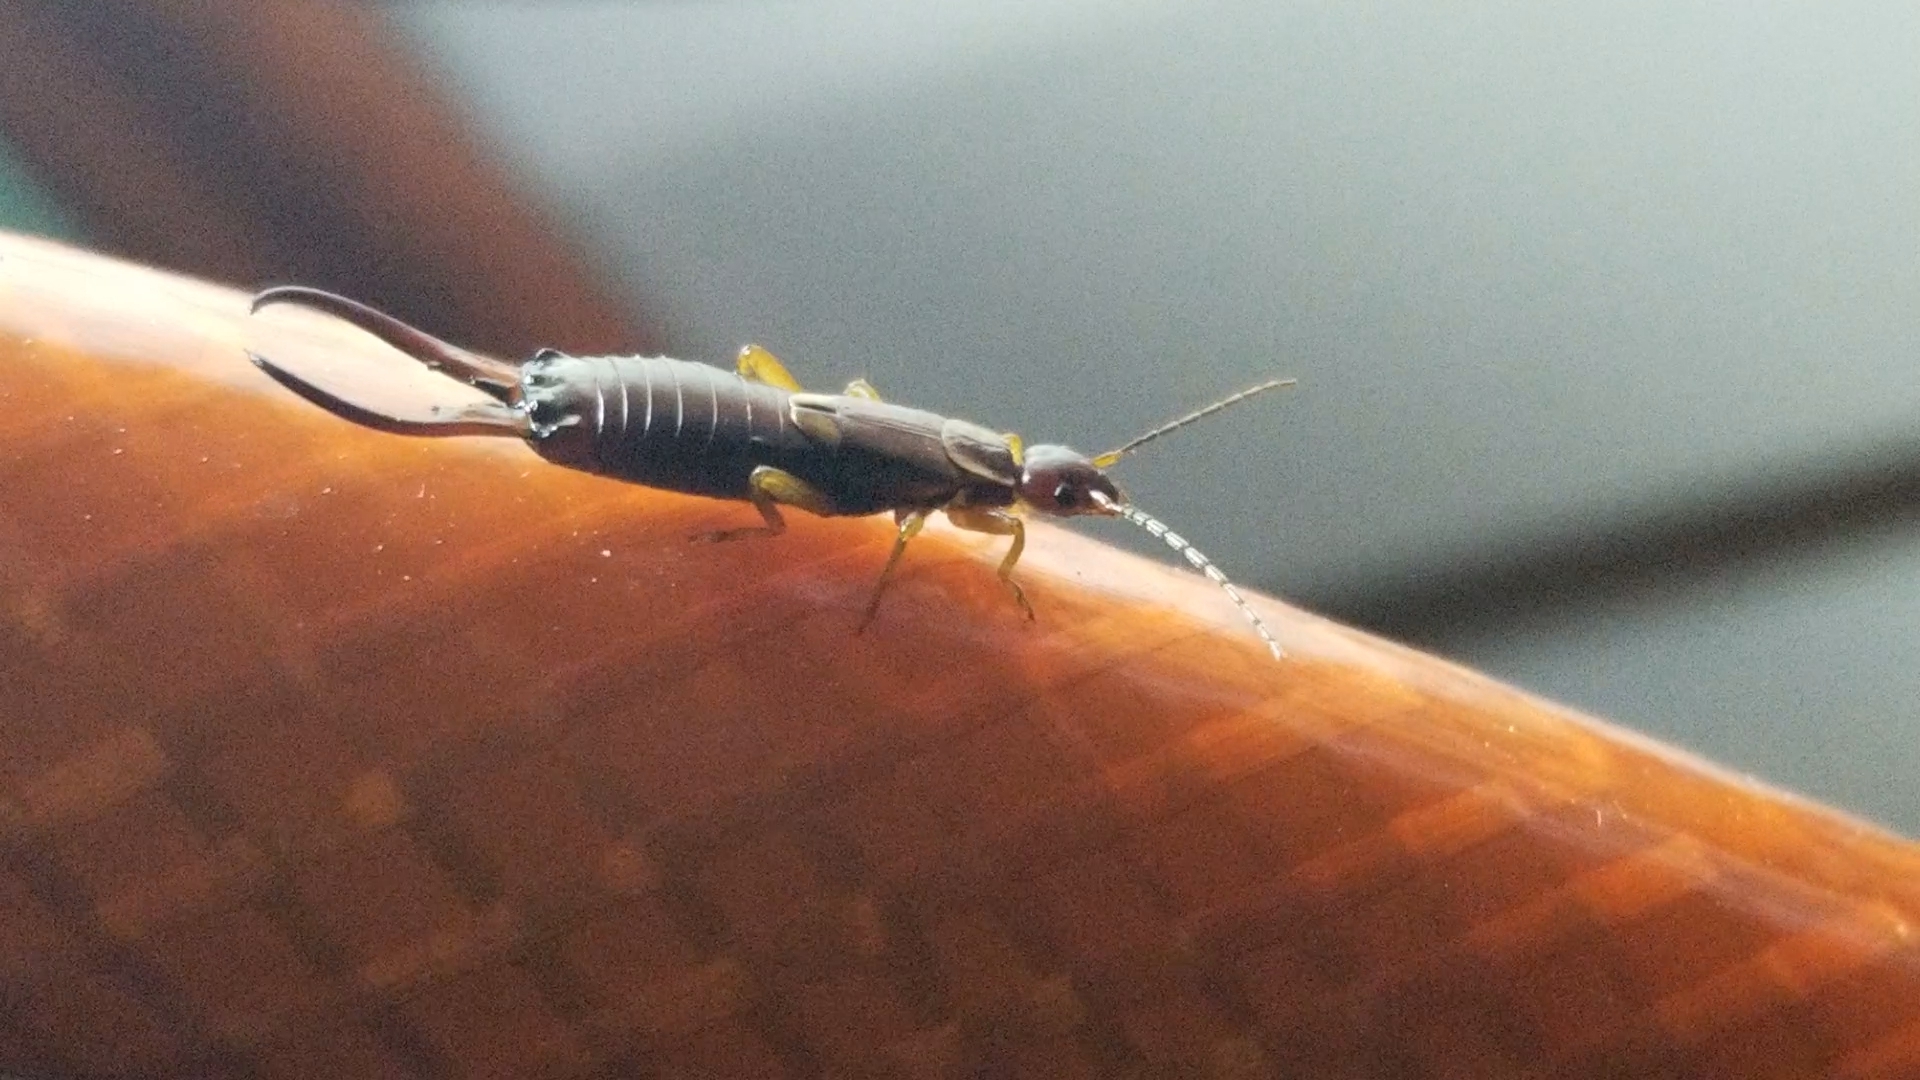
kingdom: Animalia
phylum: Arthropoda
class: Insecta
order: Dermaptera
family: Forficulidae
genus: Forficula
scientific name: Forficula
